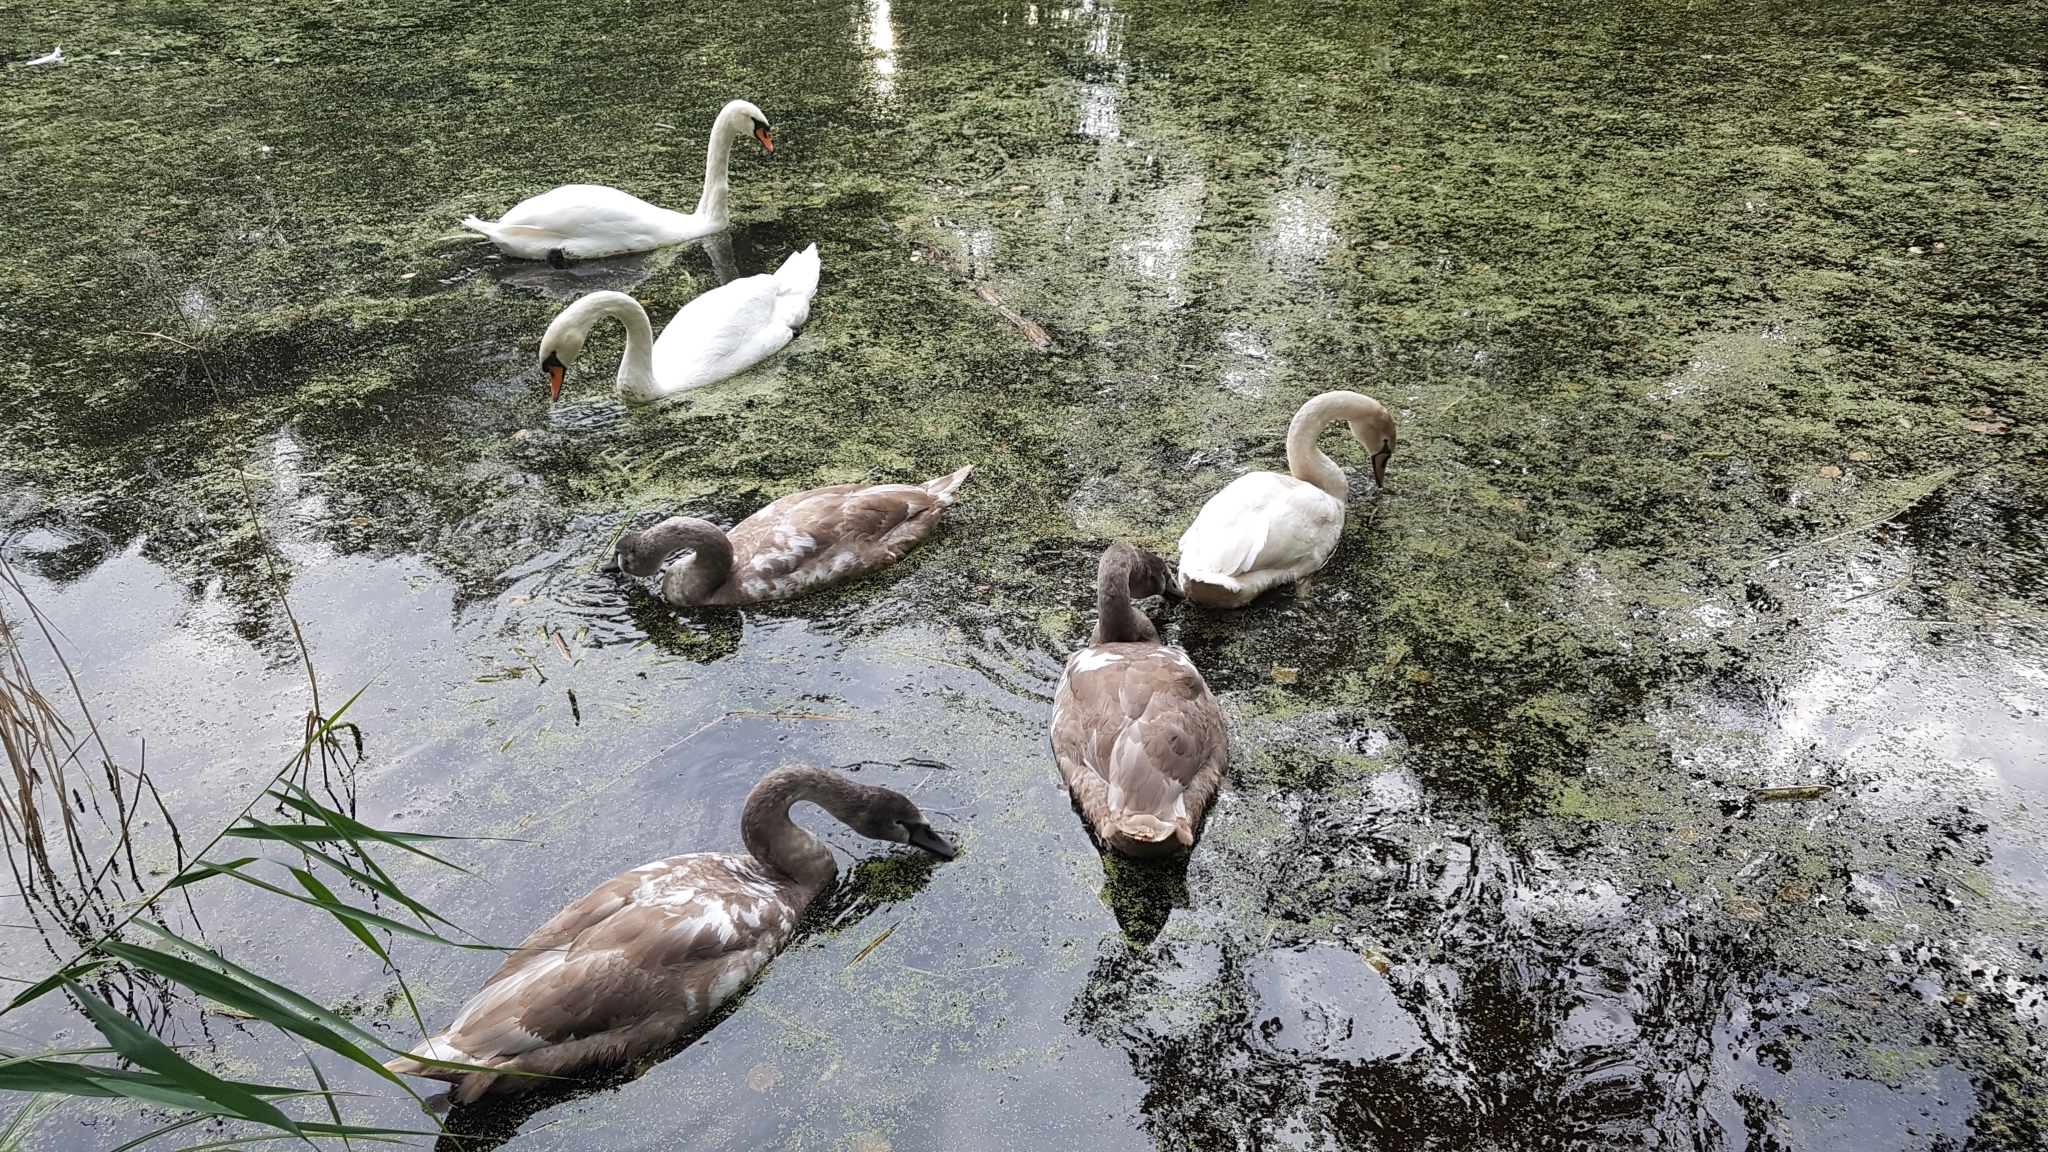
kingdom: Animalia
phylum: Chordata
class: Aves
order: Anseriformes
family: Anatidae
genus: Cygnus
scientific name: Cygnus olor
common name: Mute swan
